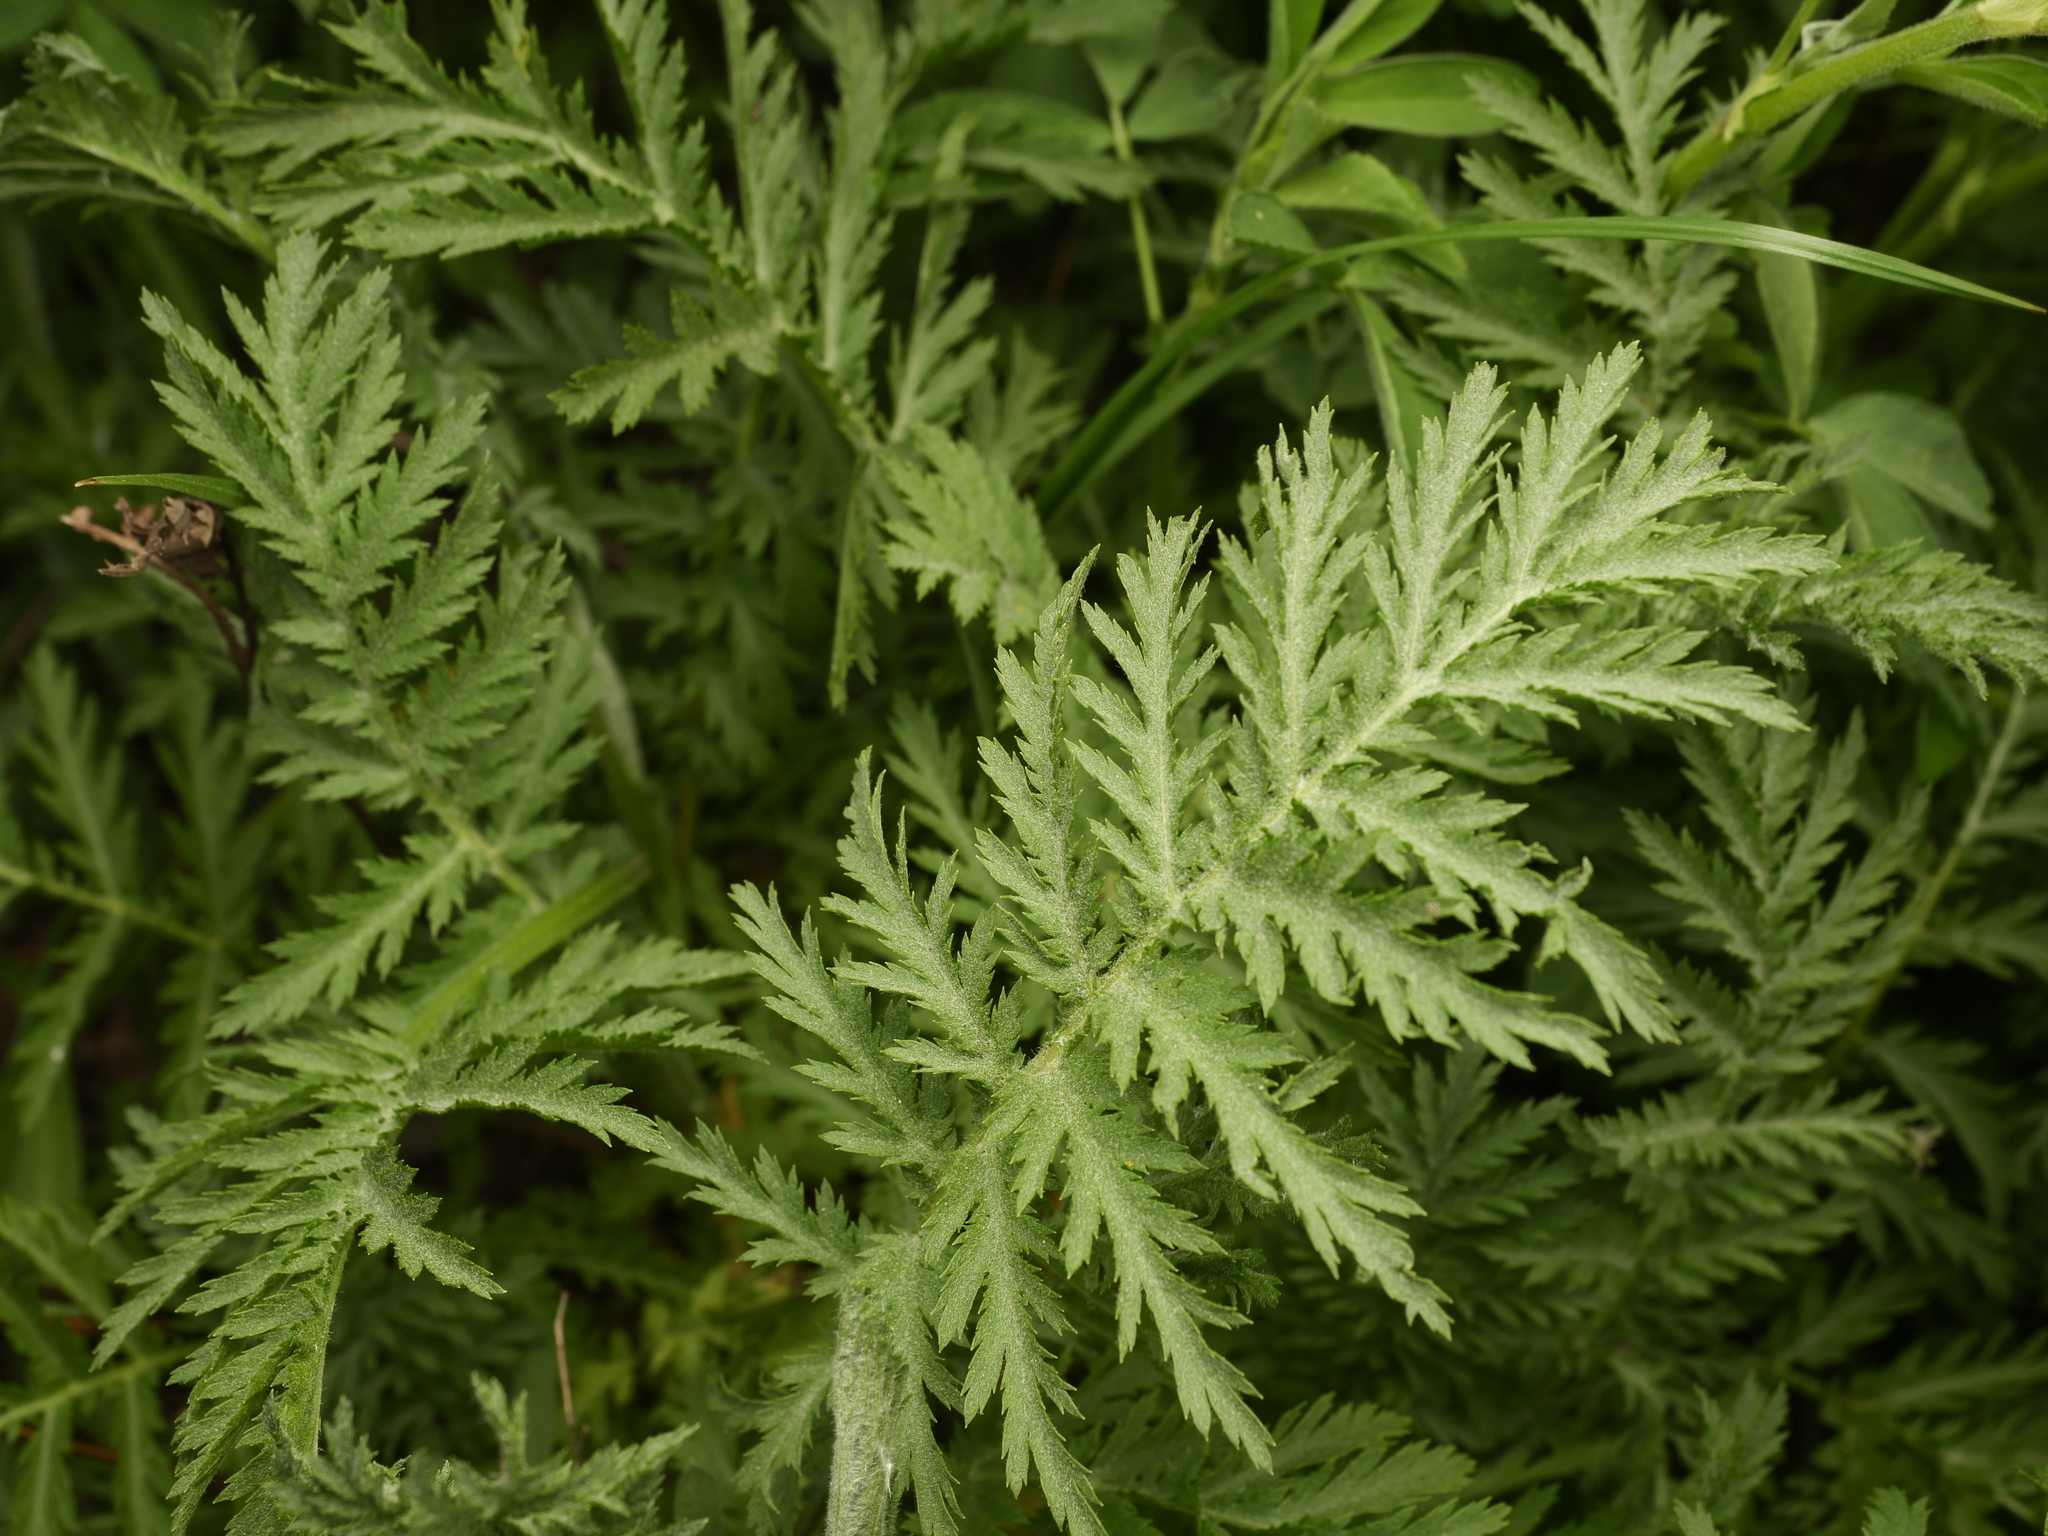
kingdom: Plantae
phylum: Tracheophyta
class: Magnoliopsida
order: Asterales
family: Asteraceae
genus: Tanacetum
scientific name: Tanacetum vulgare
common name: Common tansy
